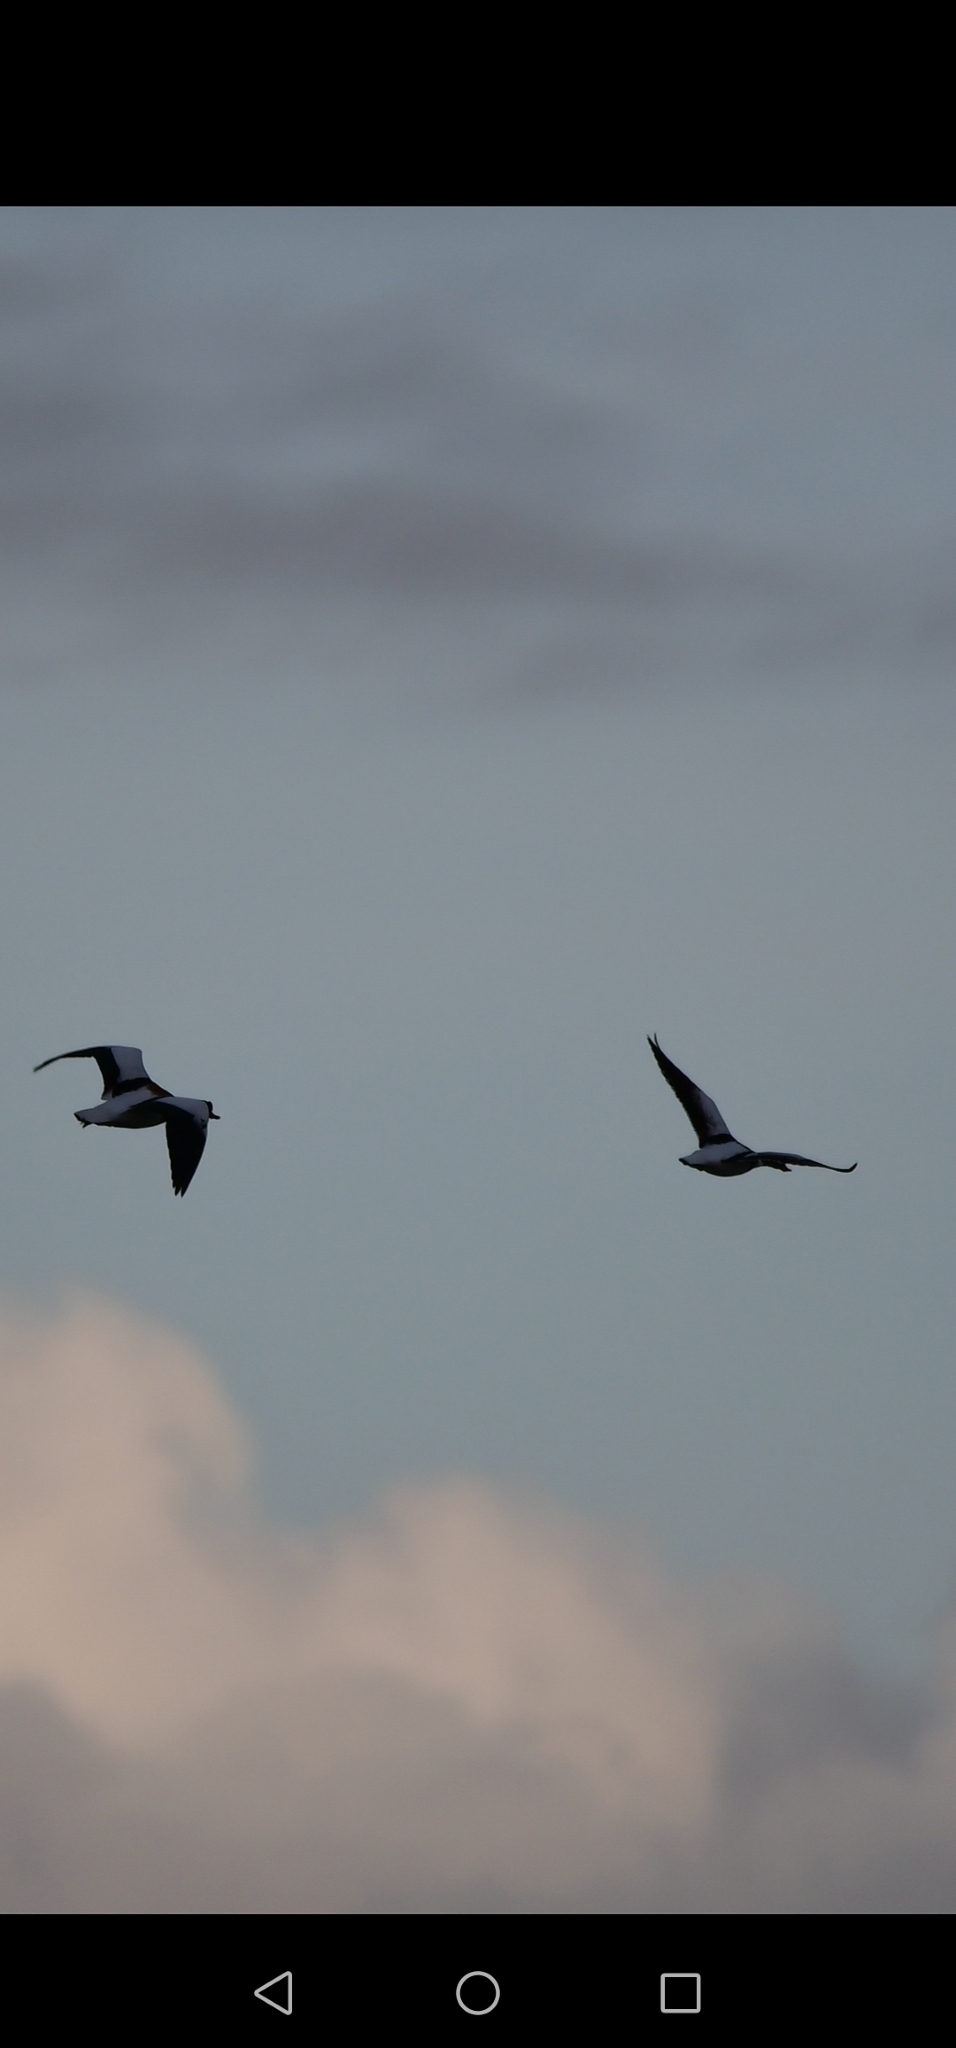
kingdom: Animalia
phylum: Chordata
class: Aves
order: Anseriformes
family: Anatidae
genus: Tadorna
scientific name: Tadorna tadorna
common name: Common shelduck
